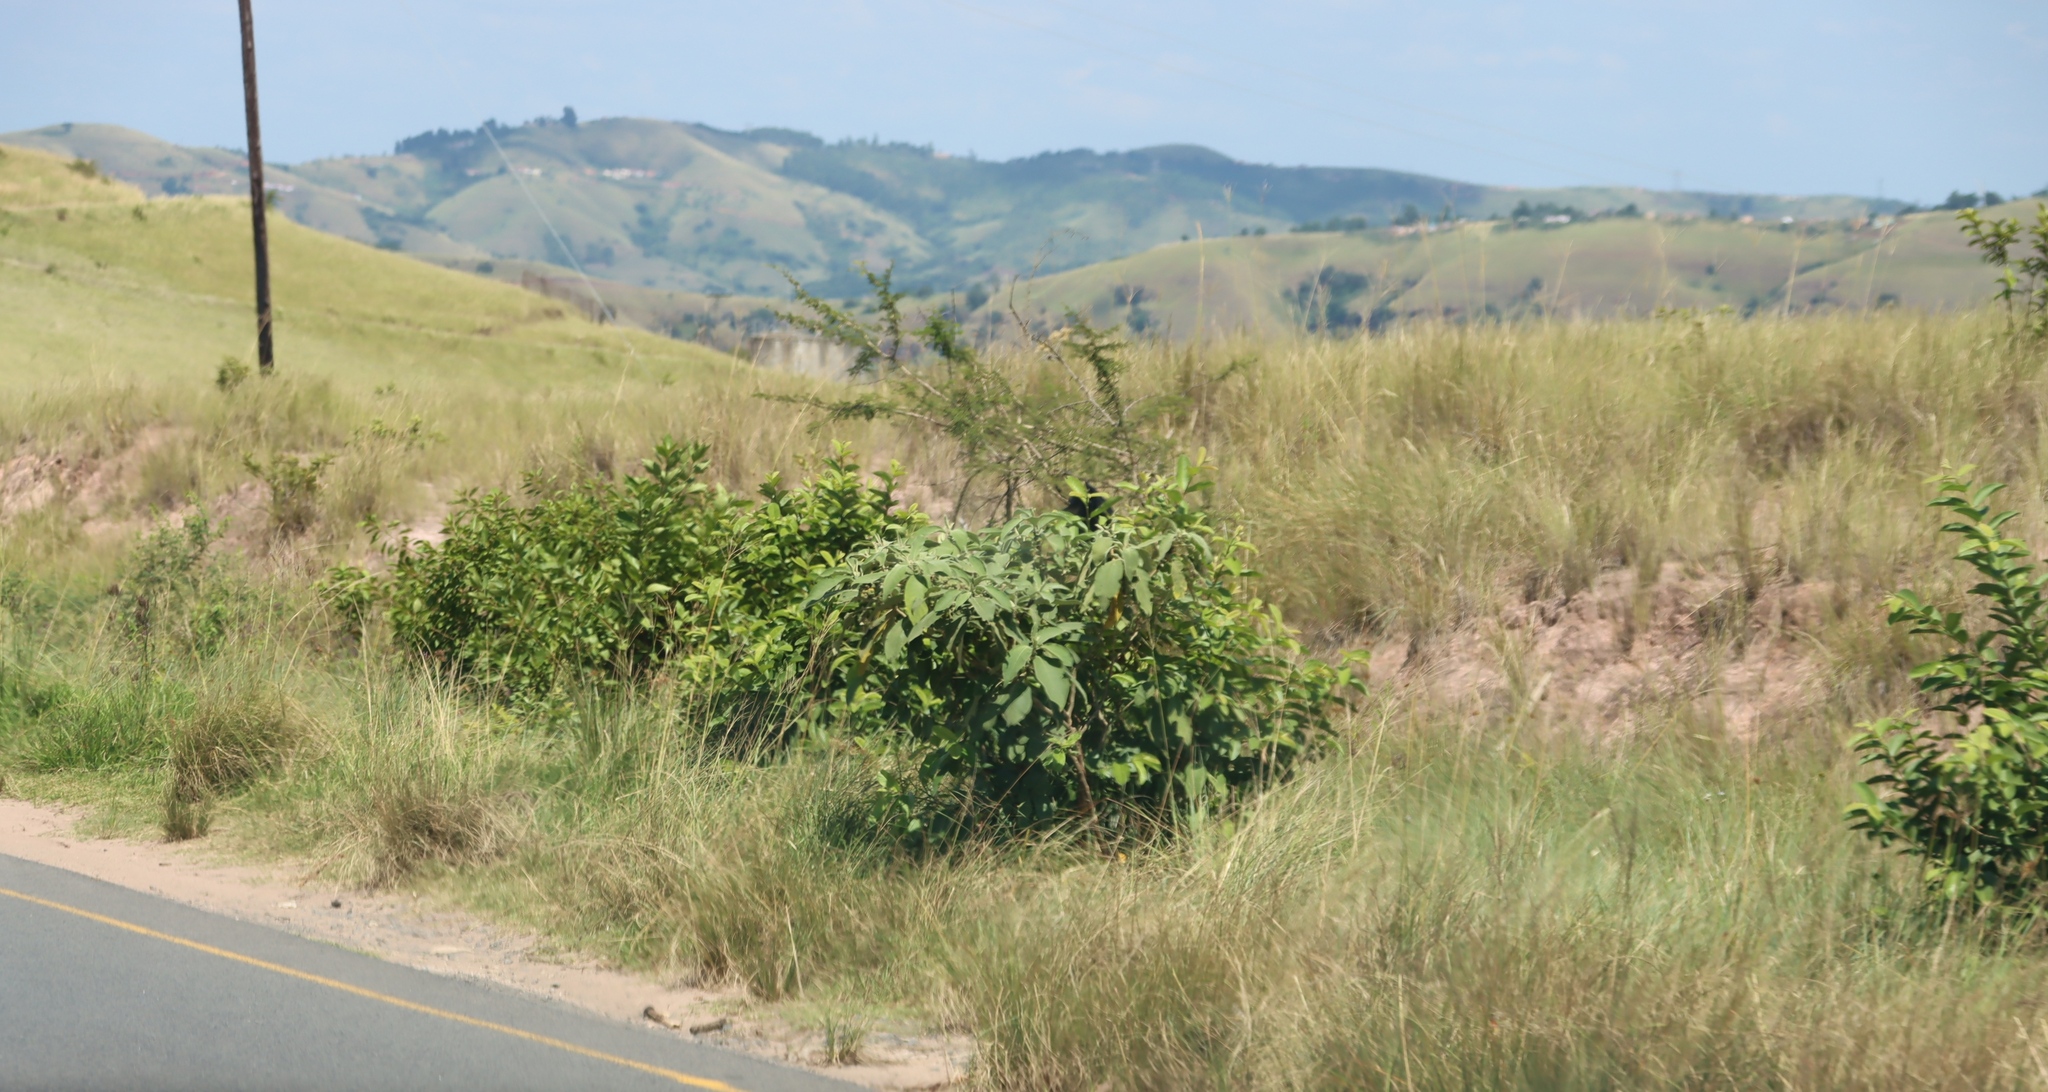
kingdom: Plantae
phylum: Tracheophyta
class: Magnoliopsida
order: Solanales
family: Solanaceae
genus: Solanum
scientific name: Solanum mauritianum
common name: Earleaf nightshade
